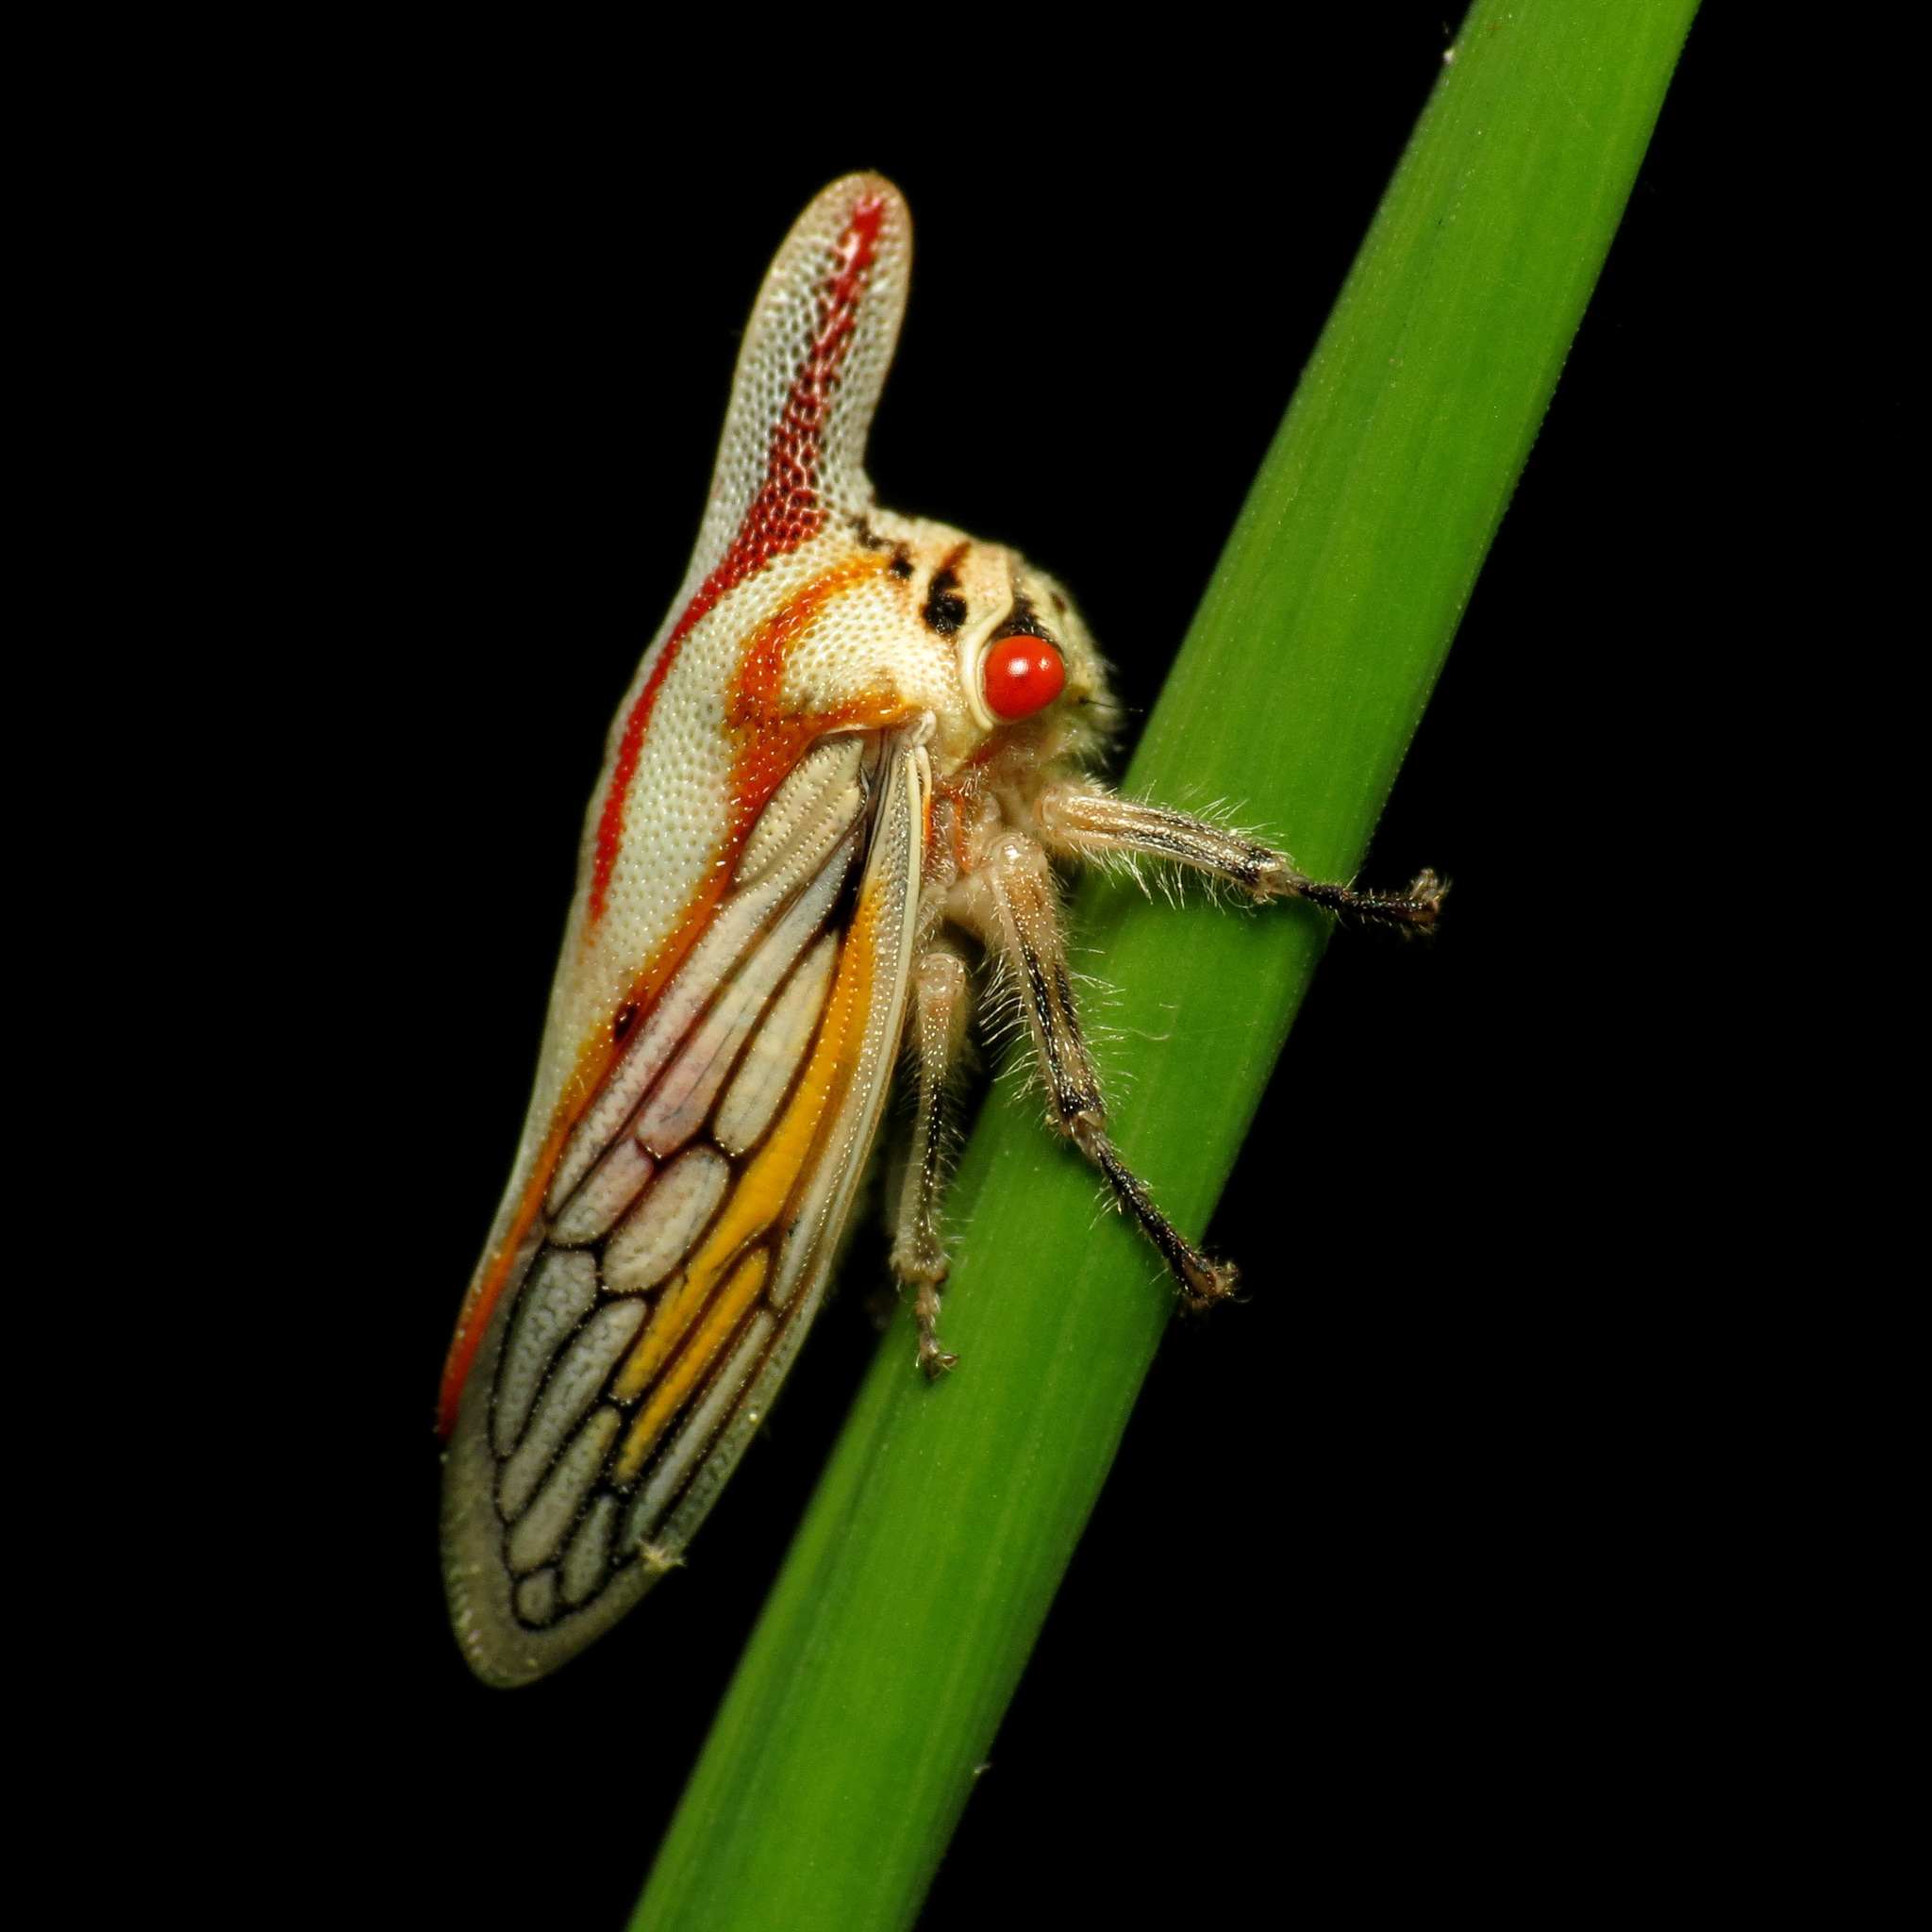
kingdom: Animalia
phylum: Arthropoda
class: Insecta
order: Hemiptera
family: Membracidae
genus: Platycotis
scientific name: Platycotis vittatus
